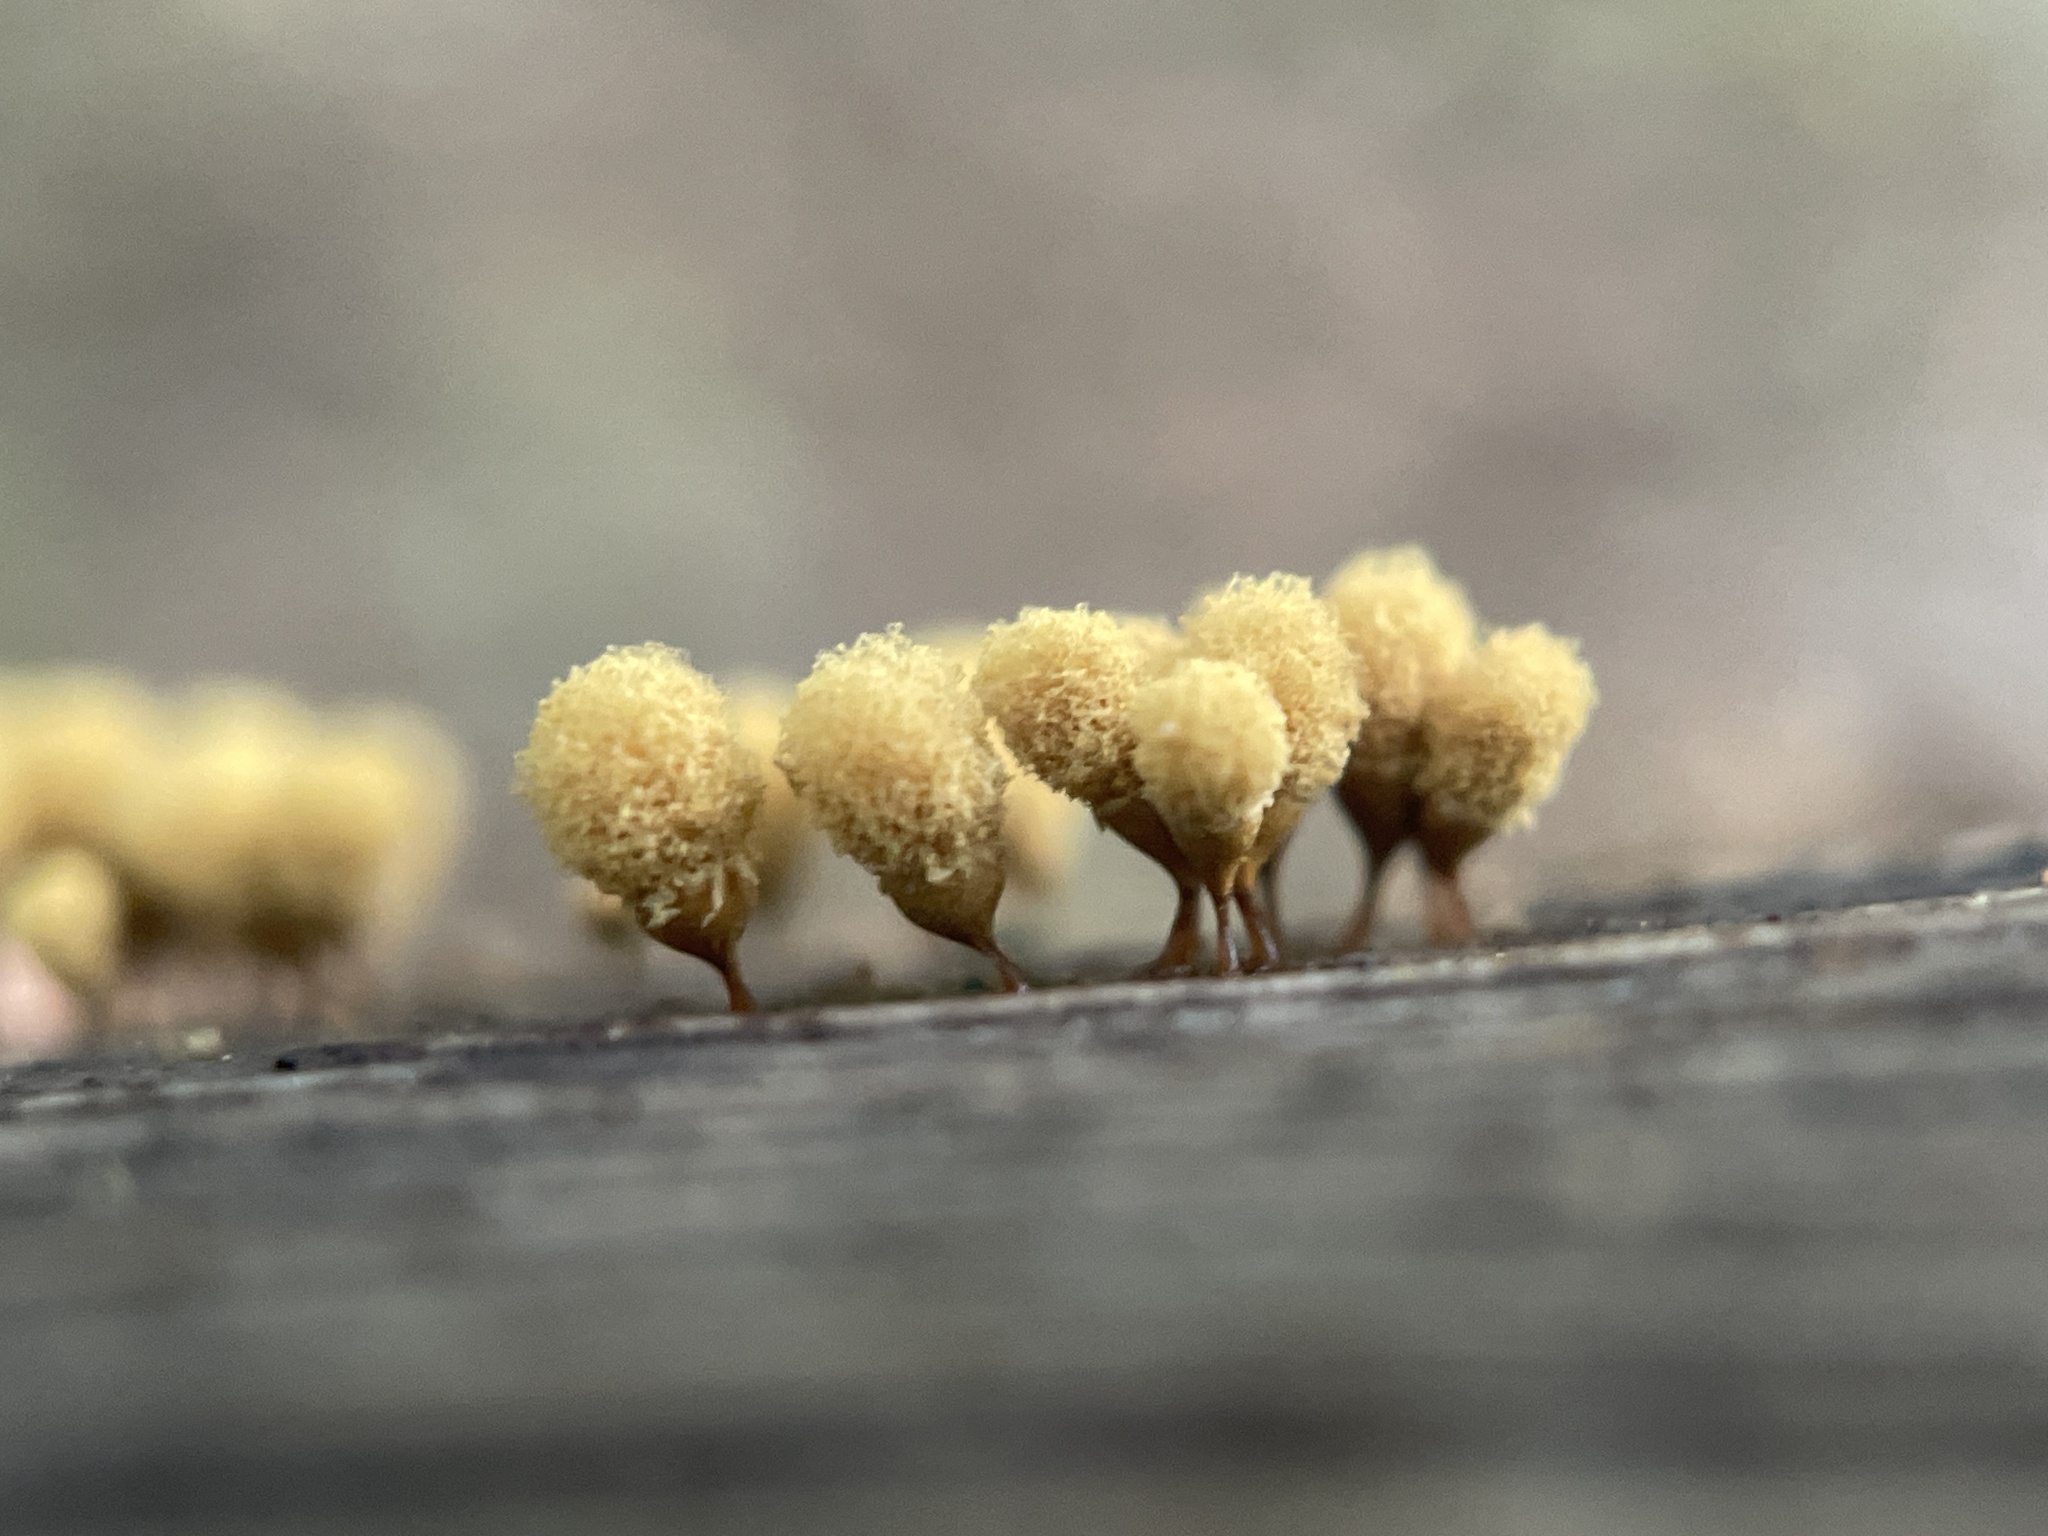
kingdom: Protozoa
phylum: Mycetozoa
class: Myxomycetes
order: Trichiales
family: Arcyriaceae
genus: Hemitrichia
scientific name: Hemitrichia calyculata
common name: Push pin slime mold
